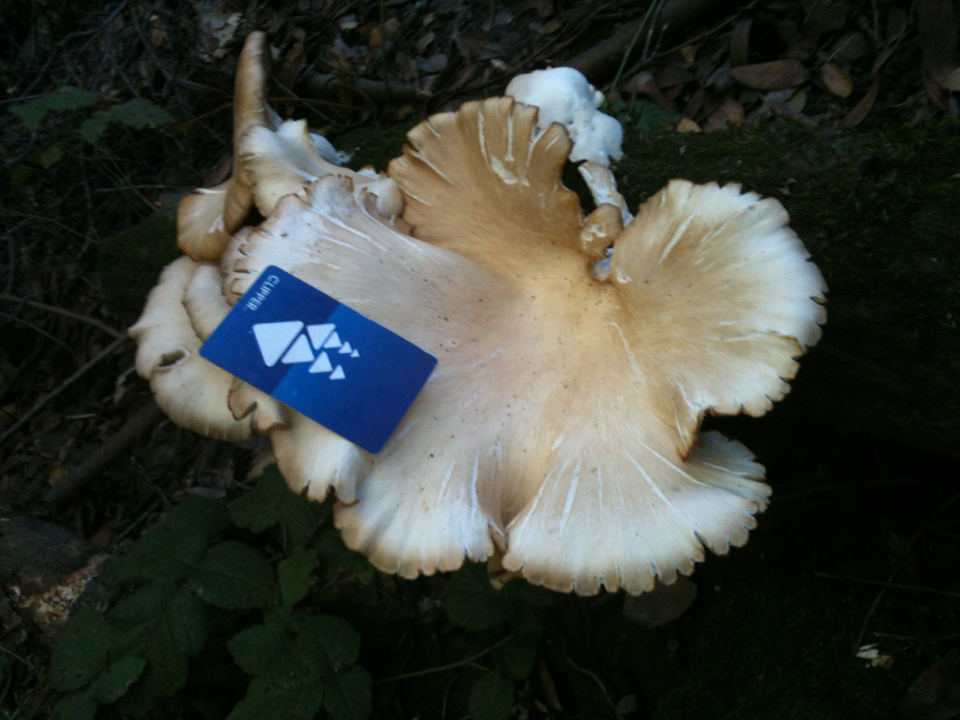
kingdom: Fungi
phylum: Basidiomycota
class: Agaricomycetes
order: Agaricales
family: Pleurotaceae
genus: Pleurotus
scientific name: Pleurotus ostreatus
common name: Oyster mushroom
